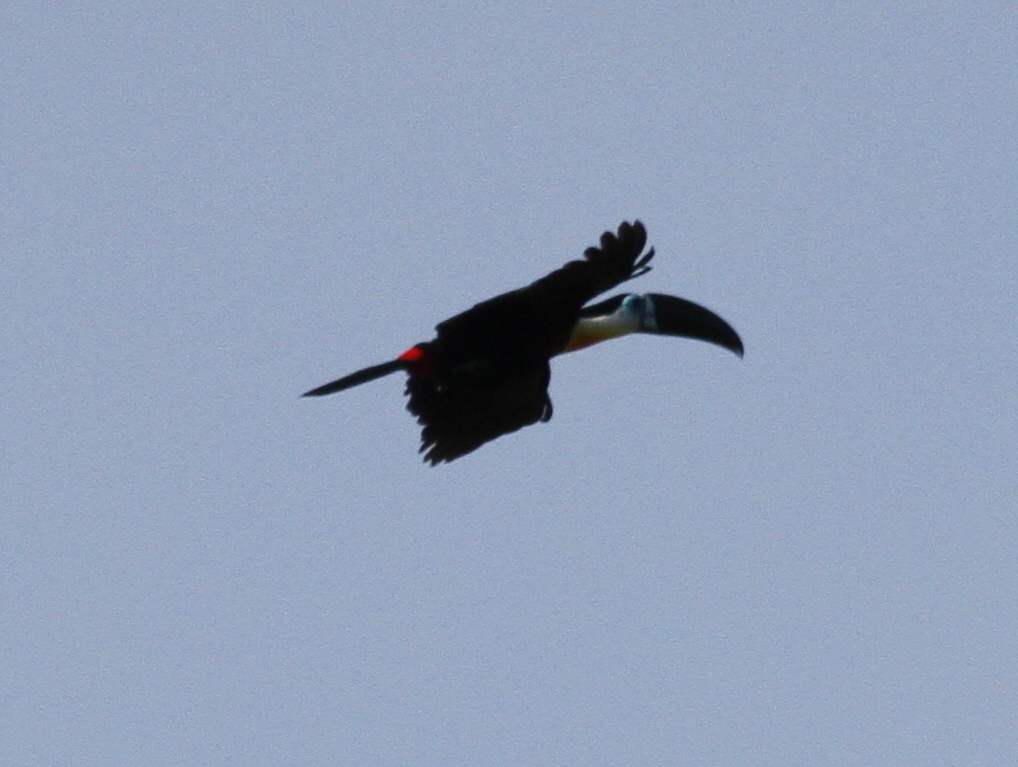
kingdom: Animalia
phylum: Chordata
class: Aves
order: Piciformes
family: Ramphastidae
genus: Ramphastos
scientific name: Ramphastos vitellinus
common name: Channel-billed toucan
